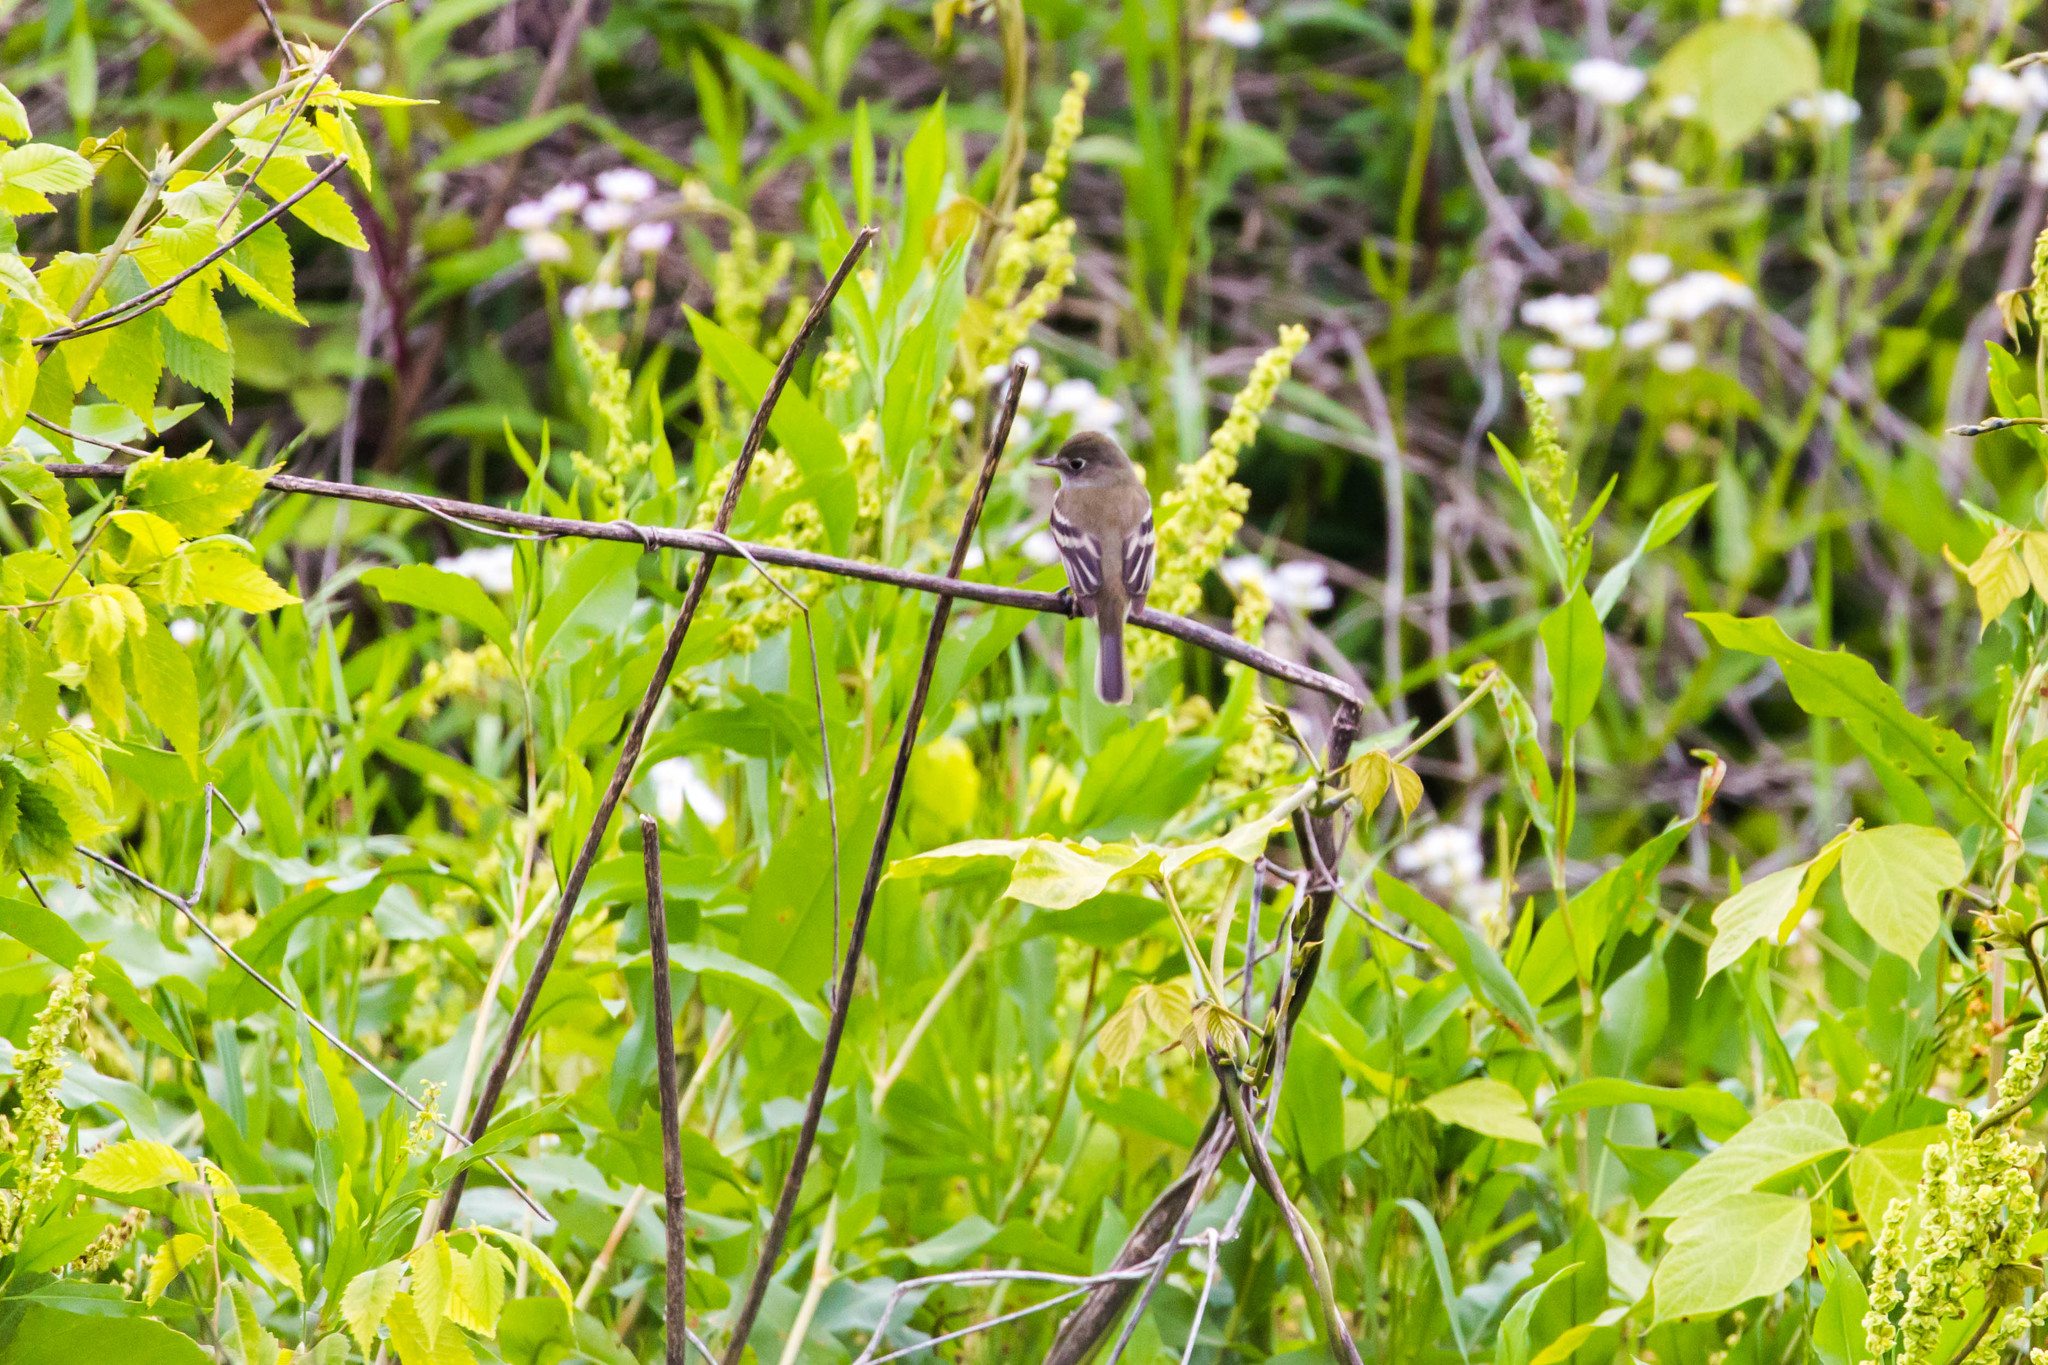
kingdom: Animalia
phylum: Chordata
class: Aves
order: Passeriformes
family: Tyrannidae
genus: Empidonax
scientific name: Empidonax
